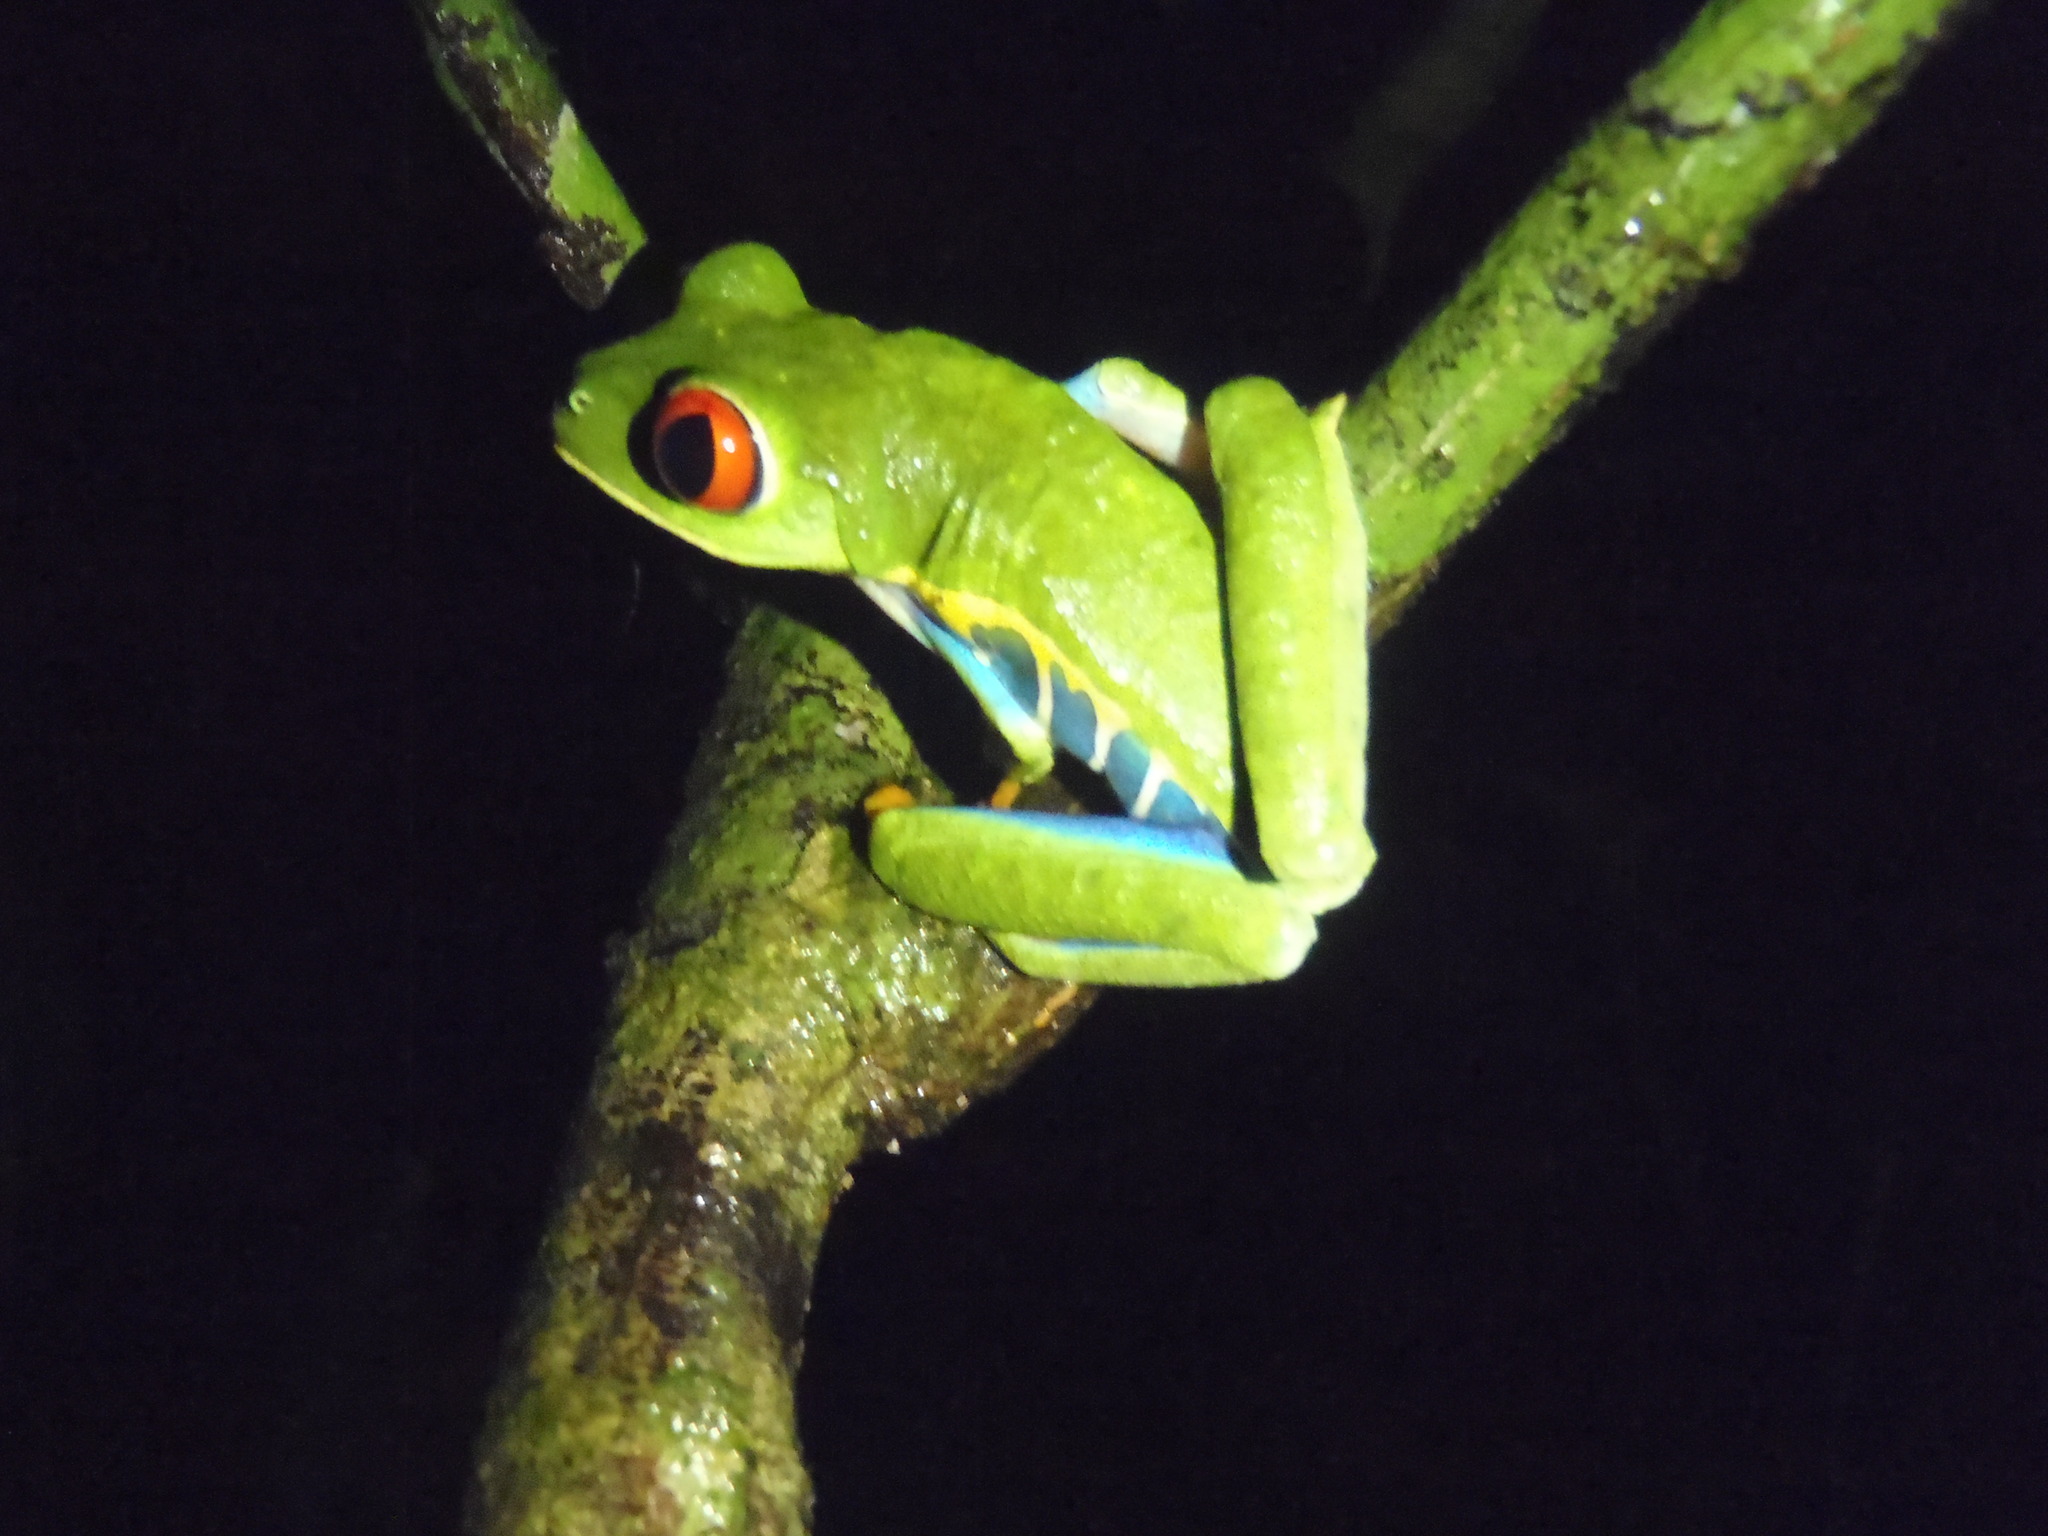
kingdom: Animalia
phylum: Chordata
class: Amphibia
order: Anura
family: Phyllomedusidae
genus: Agalychnis
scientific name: Agalychnis callidryas
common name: Red-eyed treefrog
